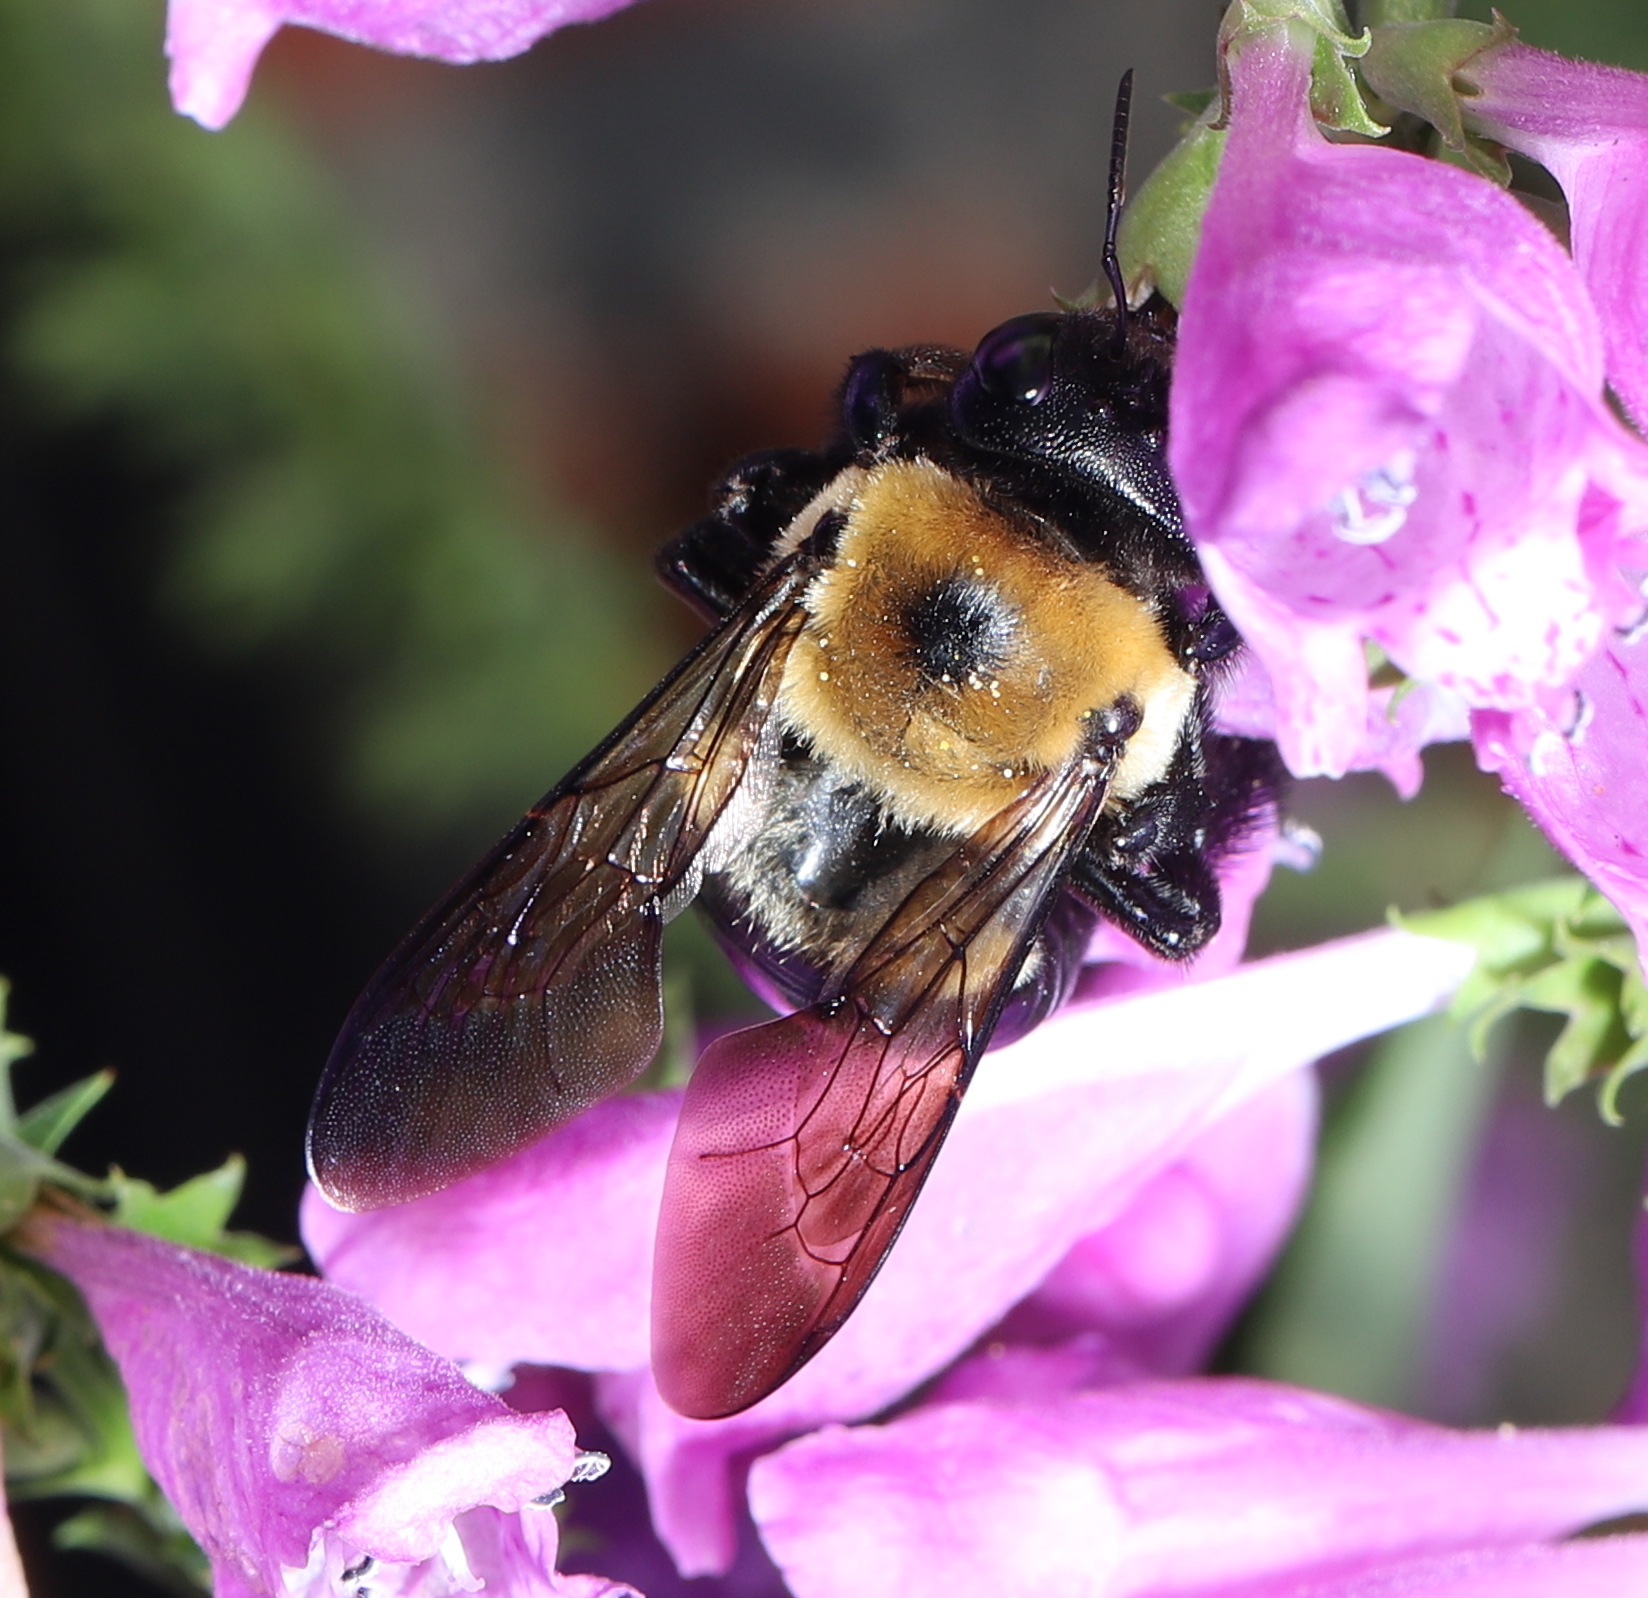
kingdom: Animalia
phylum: Arthropoda
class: Insecta
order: Hymenoptera
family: Apidae
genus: Xylocopa
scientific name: Xylocopa virginica
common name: Carpenter bee
